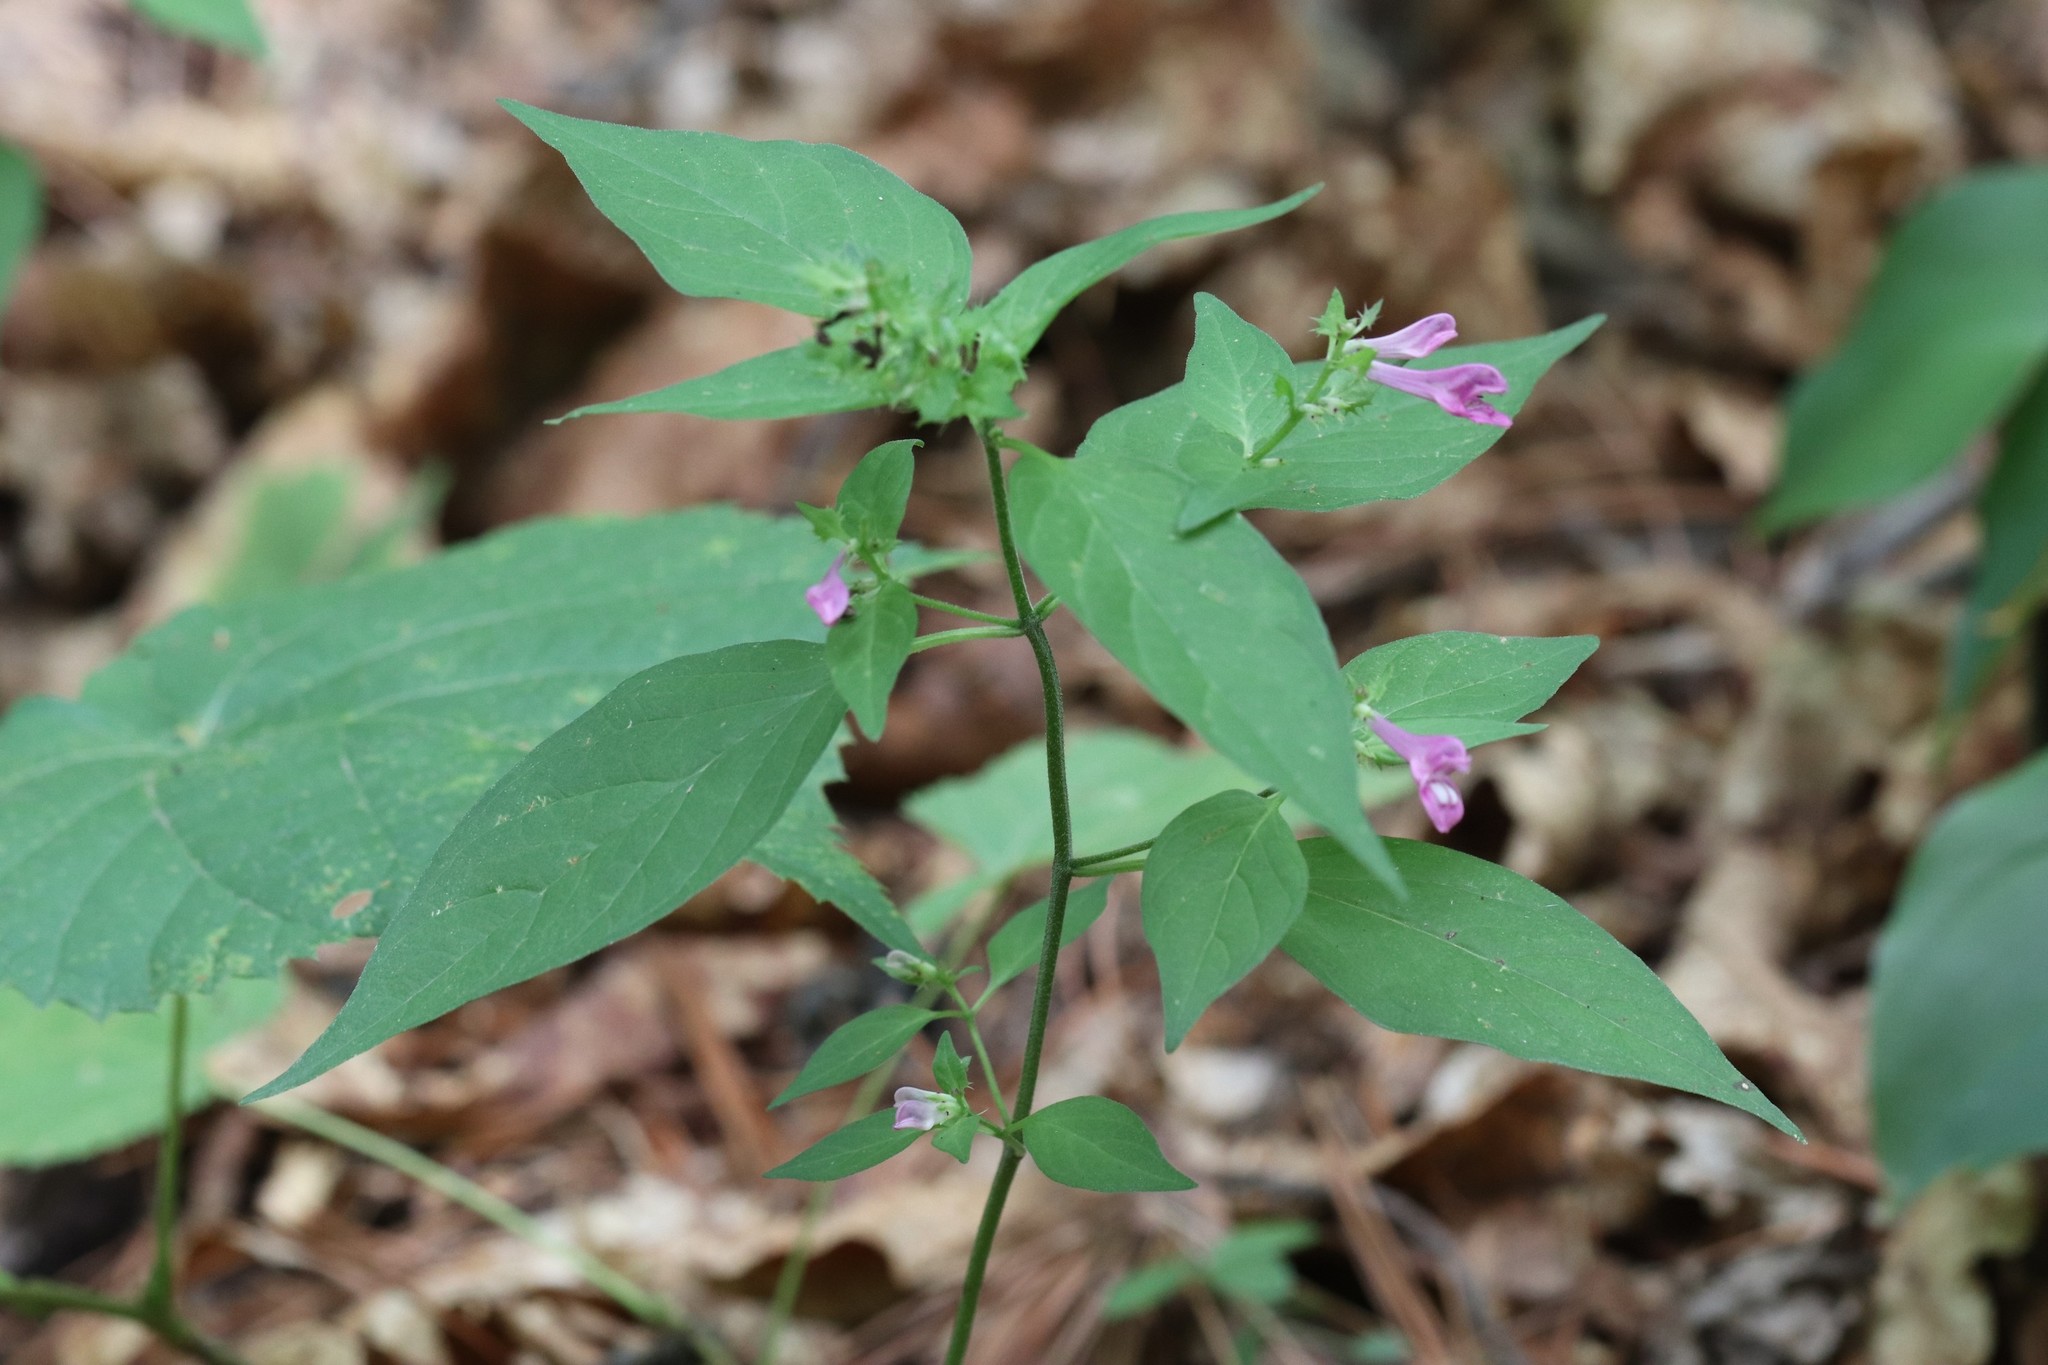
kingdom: Plantae
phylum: Tracheophyta
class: Magnoliopsida
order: Lamiales
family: Orobanchaceae
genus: Melampyrum
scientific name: Melampyrum roseum
